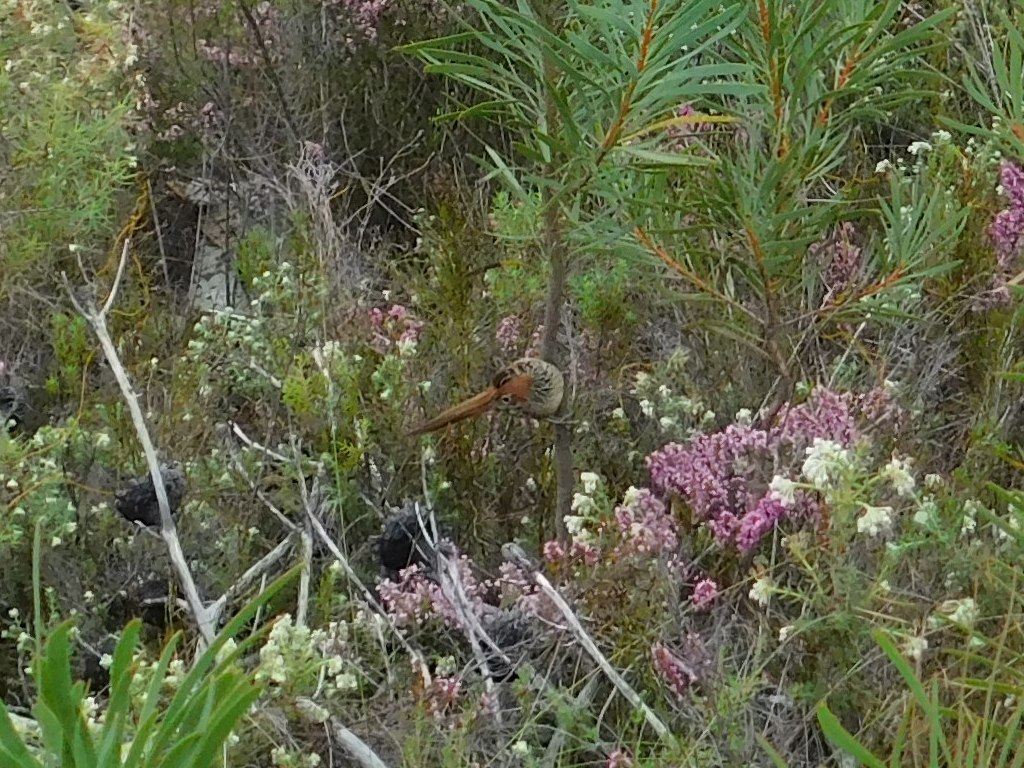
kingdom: Animalia
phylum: Chordata
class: Aves
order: Passeriformes
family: Macrosphenidae
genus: Sphenoeacus
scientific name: Sphenoeacus afer
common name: Cape grassbird
